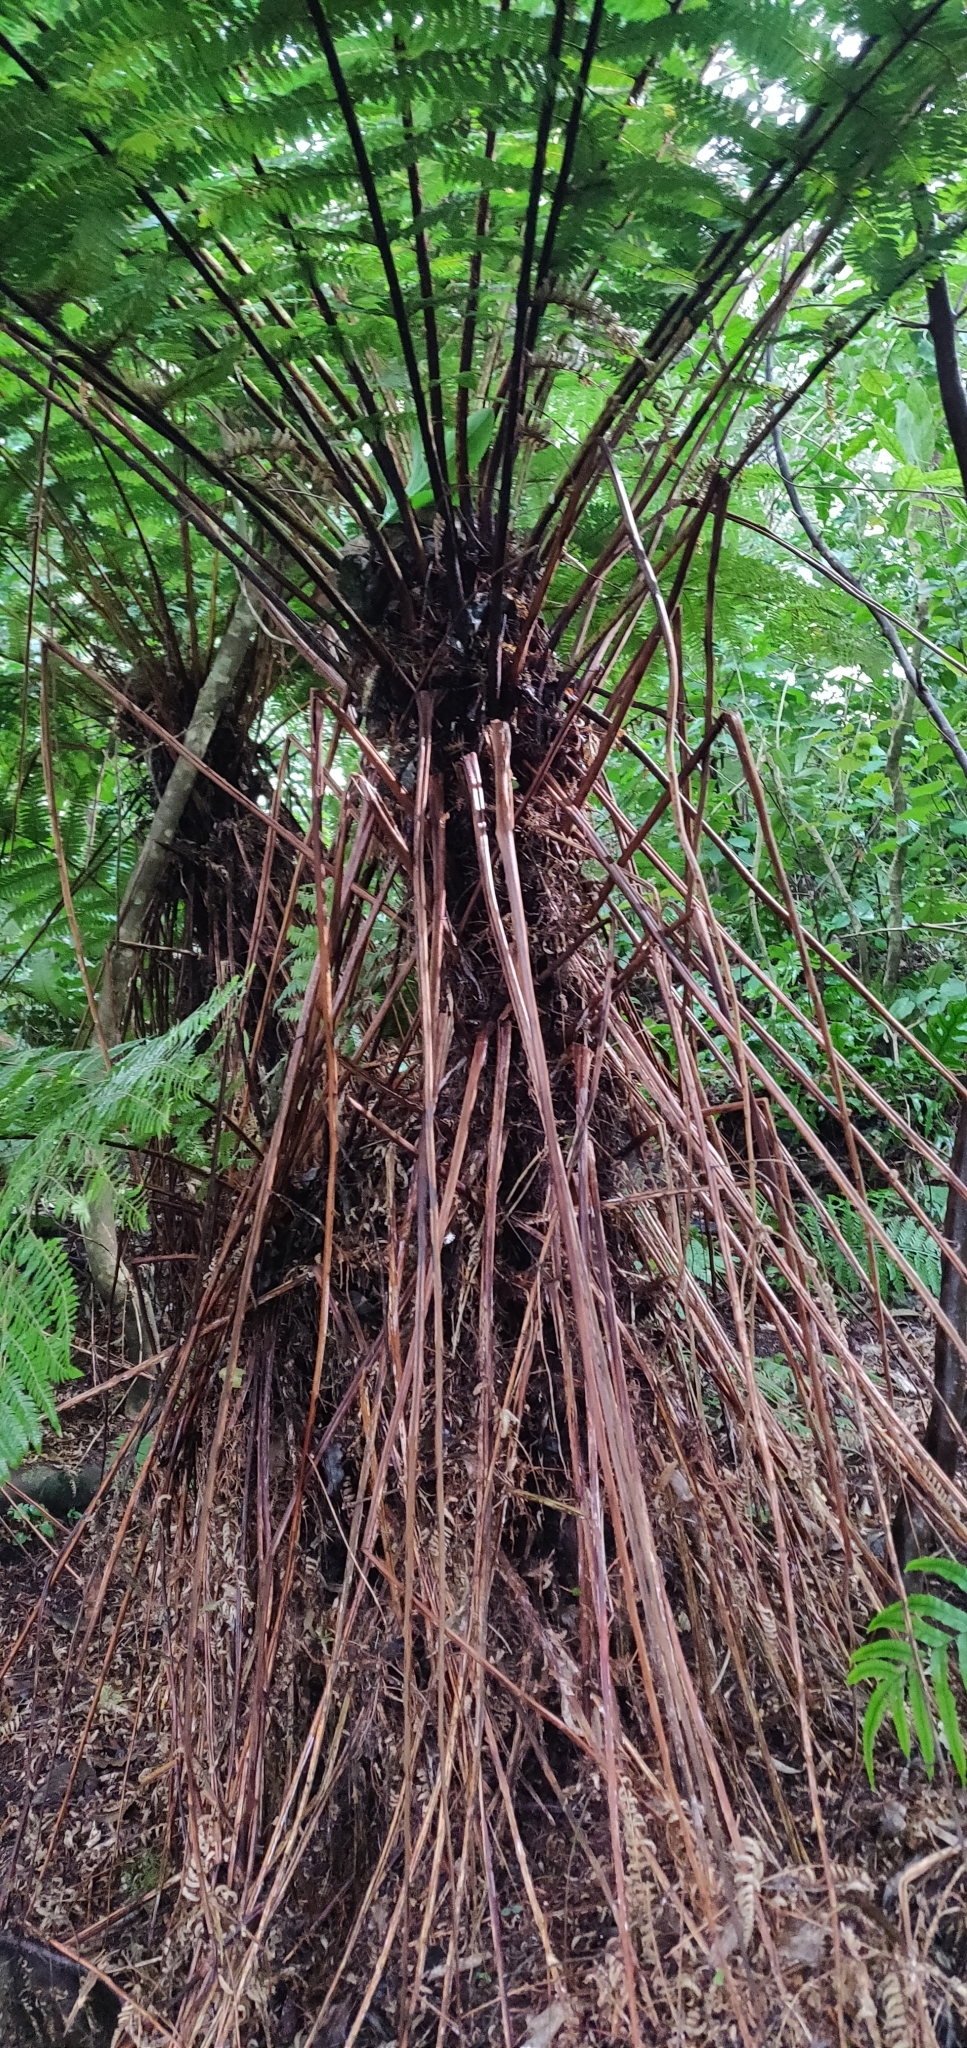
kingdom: Plantae
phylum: Tracheophyta
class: Polypodiopsida
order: Cyatheales
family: Cyatheaceae
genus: Alsophila
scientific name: Alsophila smithii
